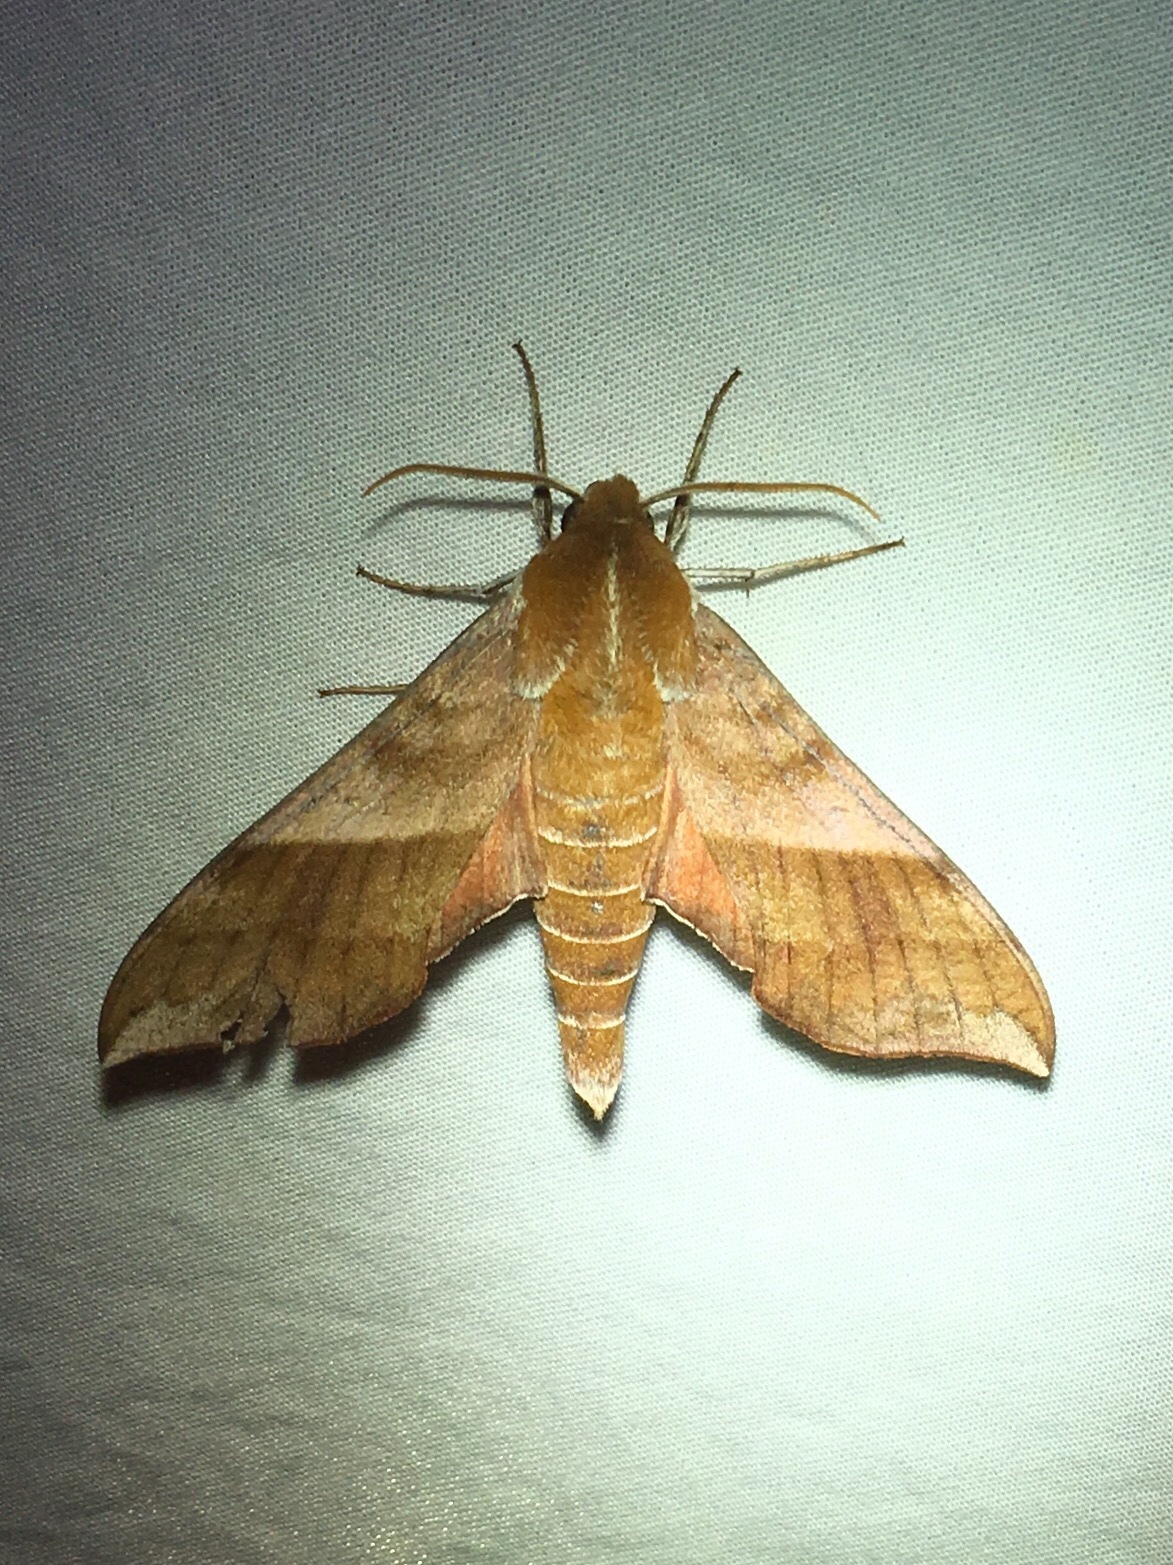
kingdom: Animalia
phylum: Arthropoda
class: Insecta
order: Lepidoptera
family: Sphingidae
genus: Darapsa
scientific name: Darapsa choerilus
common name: Azalea sphinx
